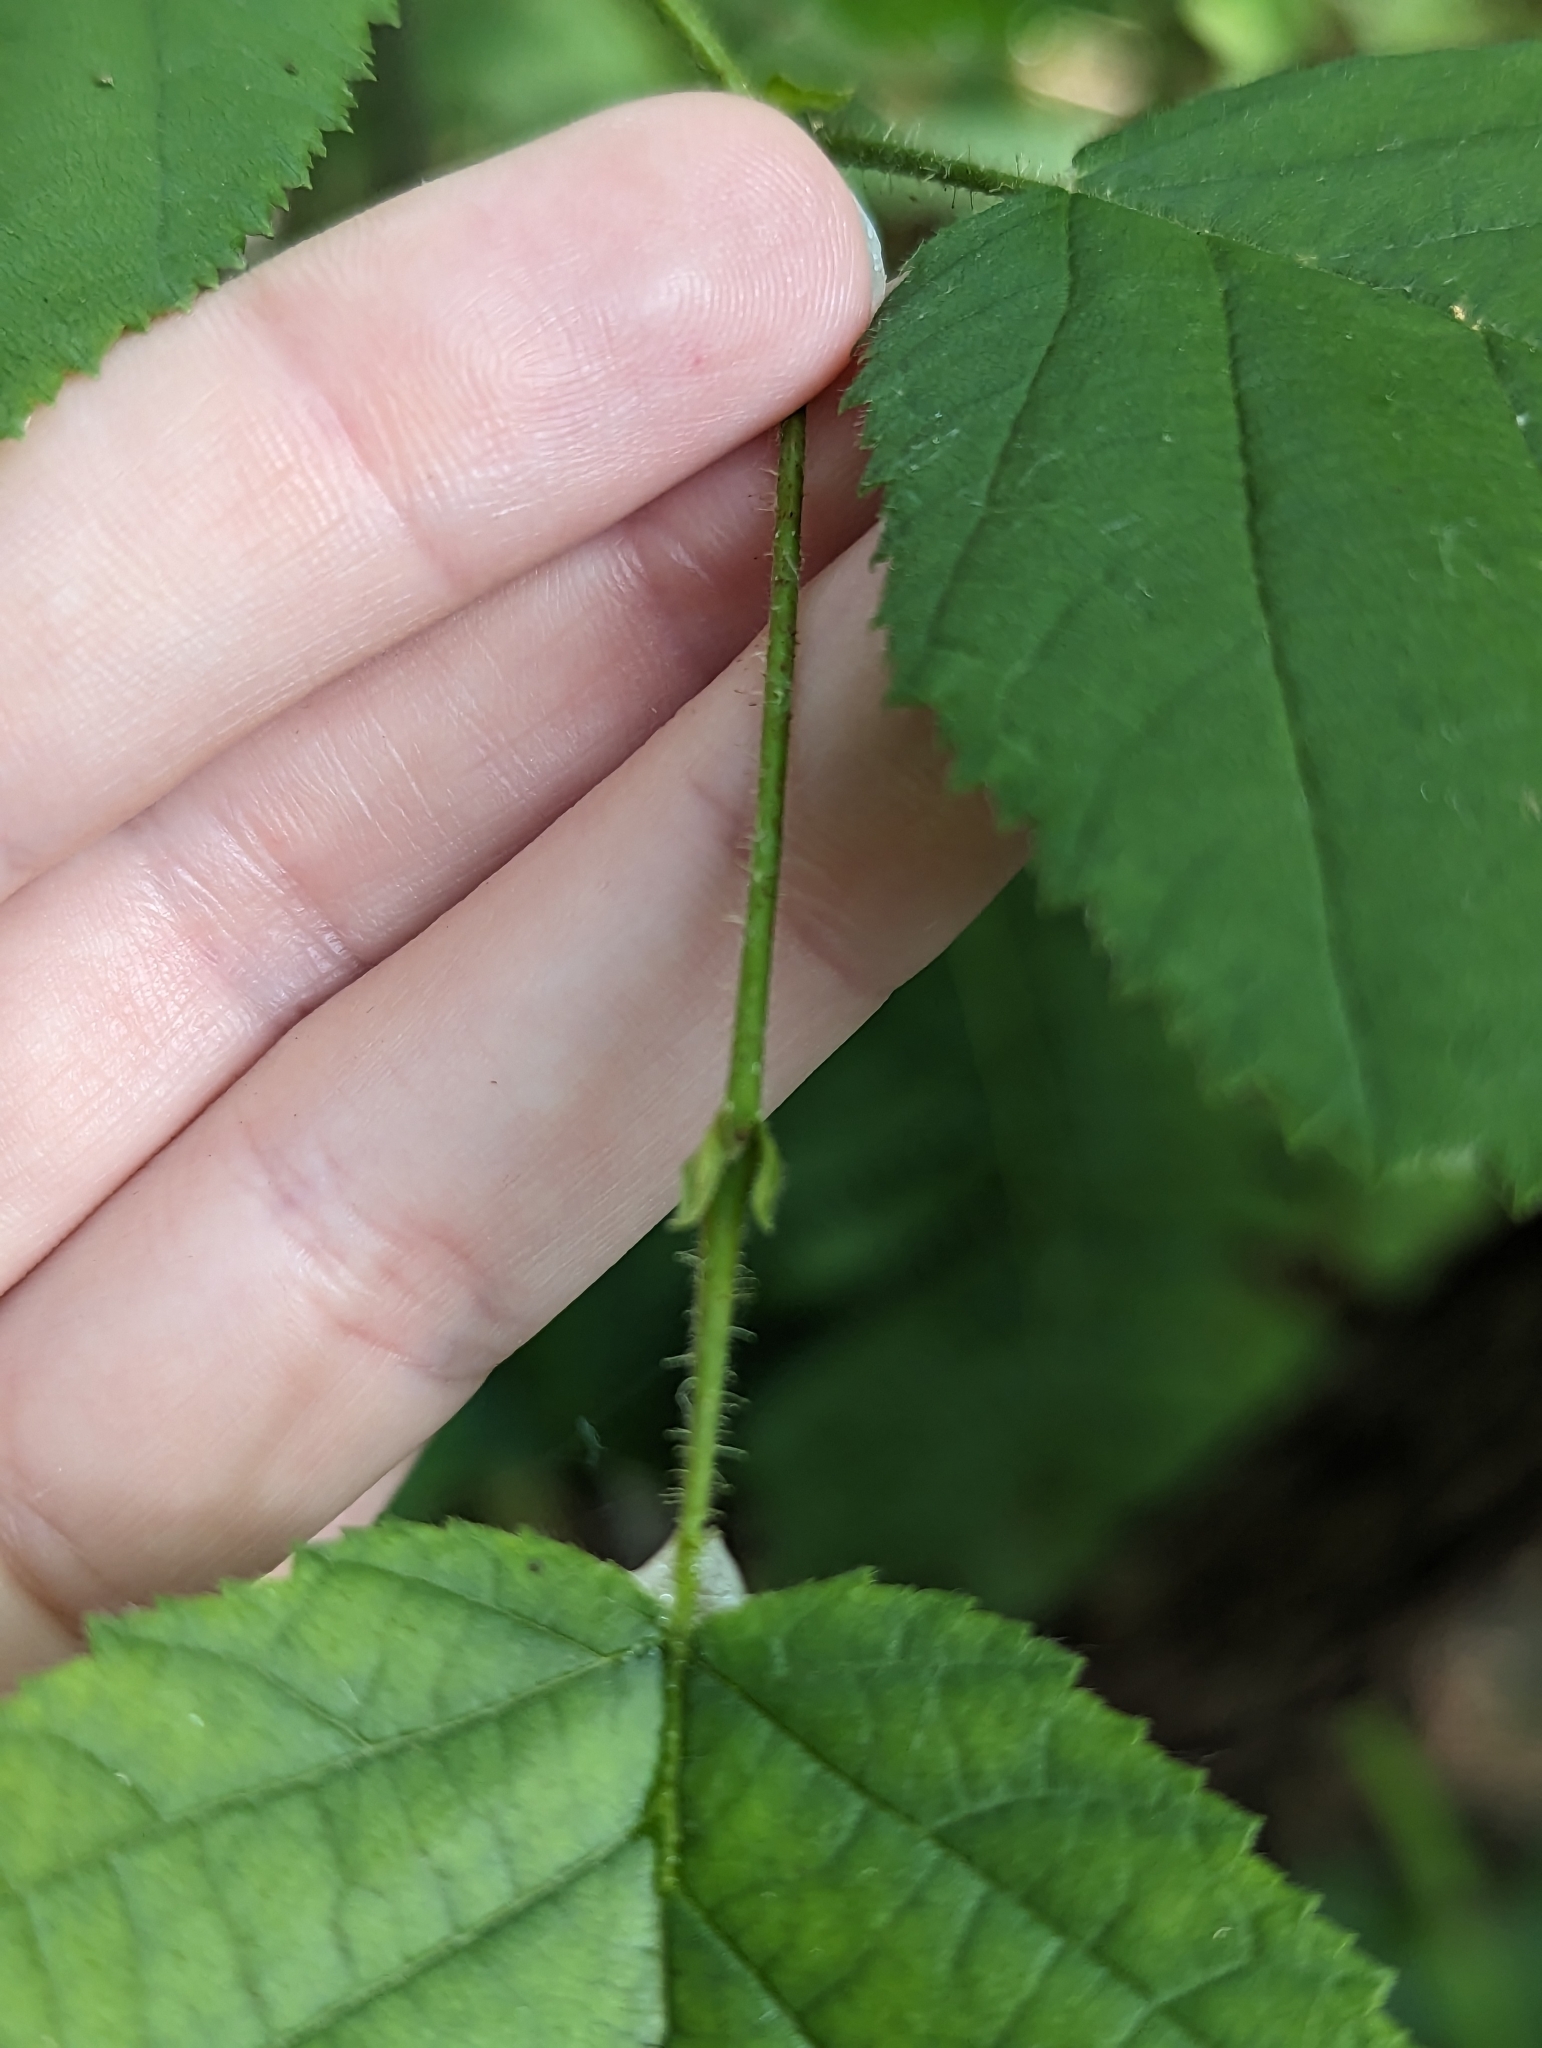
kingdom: Plantae
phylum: Tracheophyta
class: Magnoliopsida
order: Fagales
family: Betulaceae
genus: Corylus
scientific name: Corylus americana
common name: American hazel
